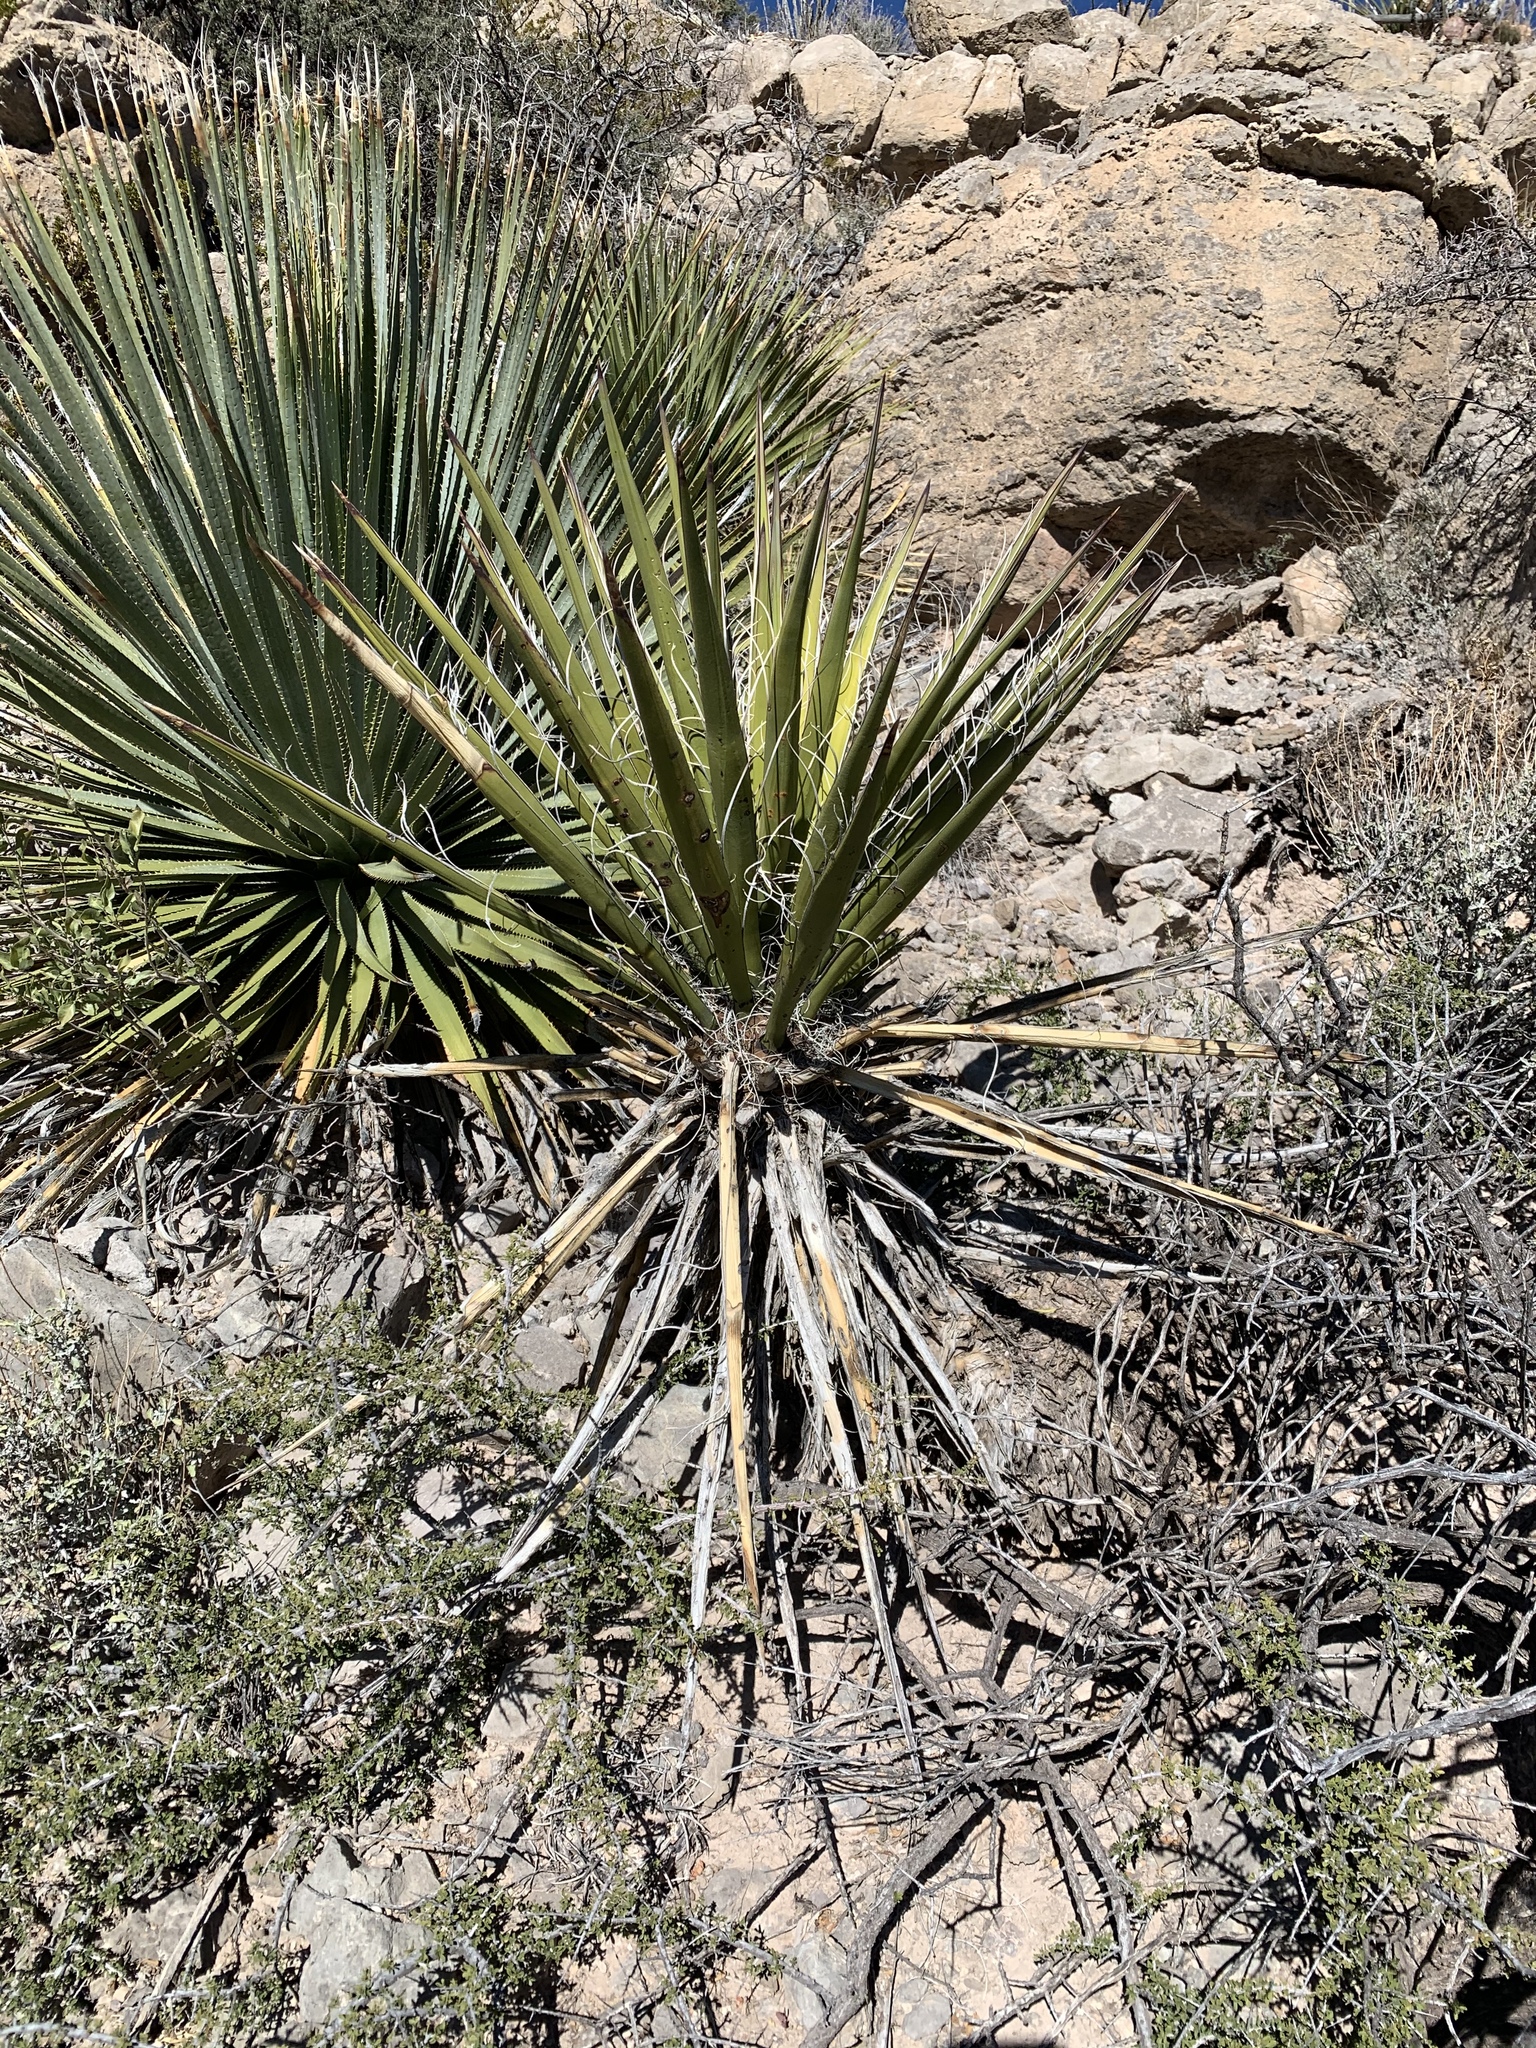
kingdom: Plantae
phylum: Tracheophyta
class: Liliopsida
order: Asparagales
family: Asparagaceae
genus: Yucca
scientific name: Yucca treculiana
